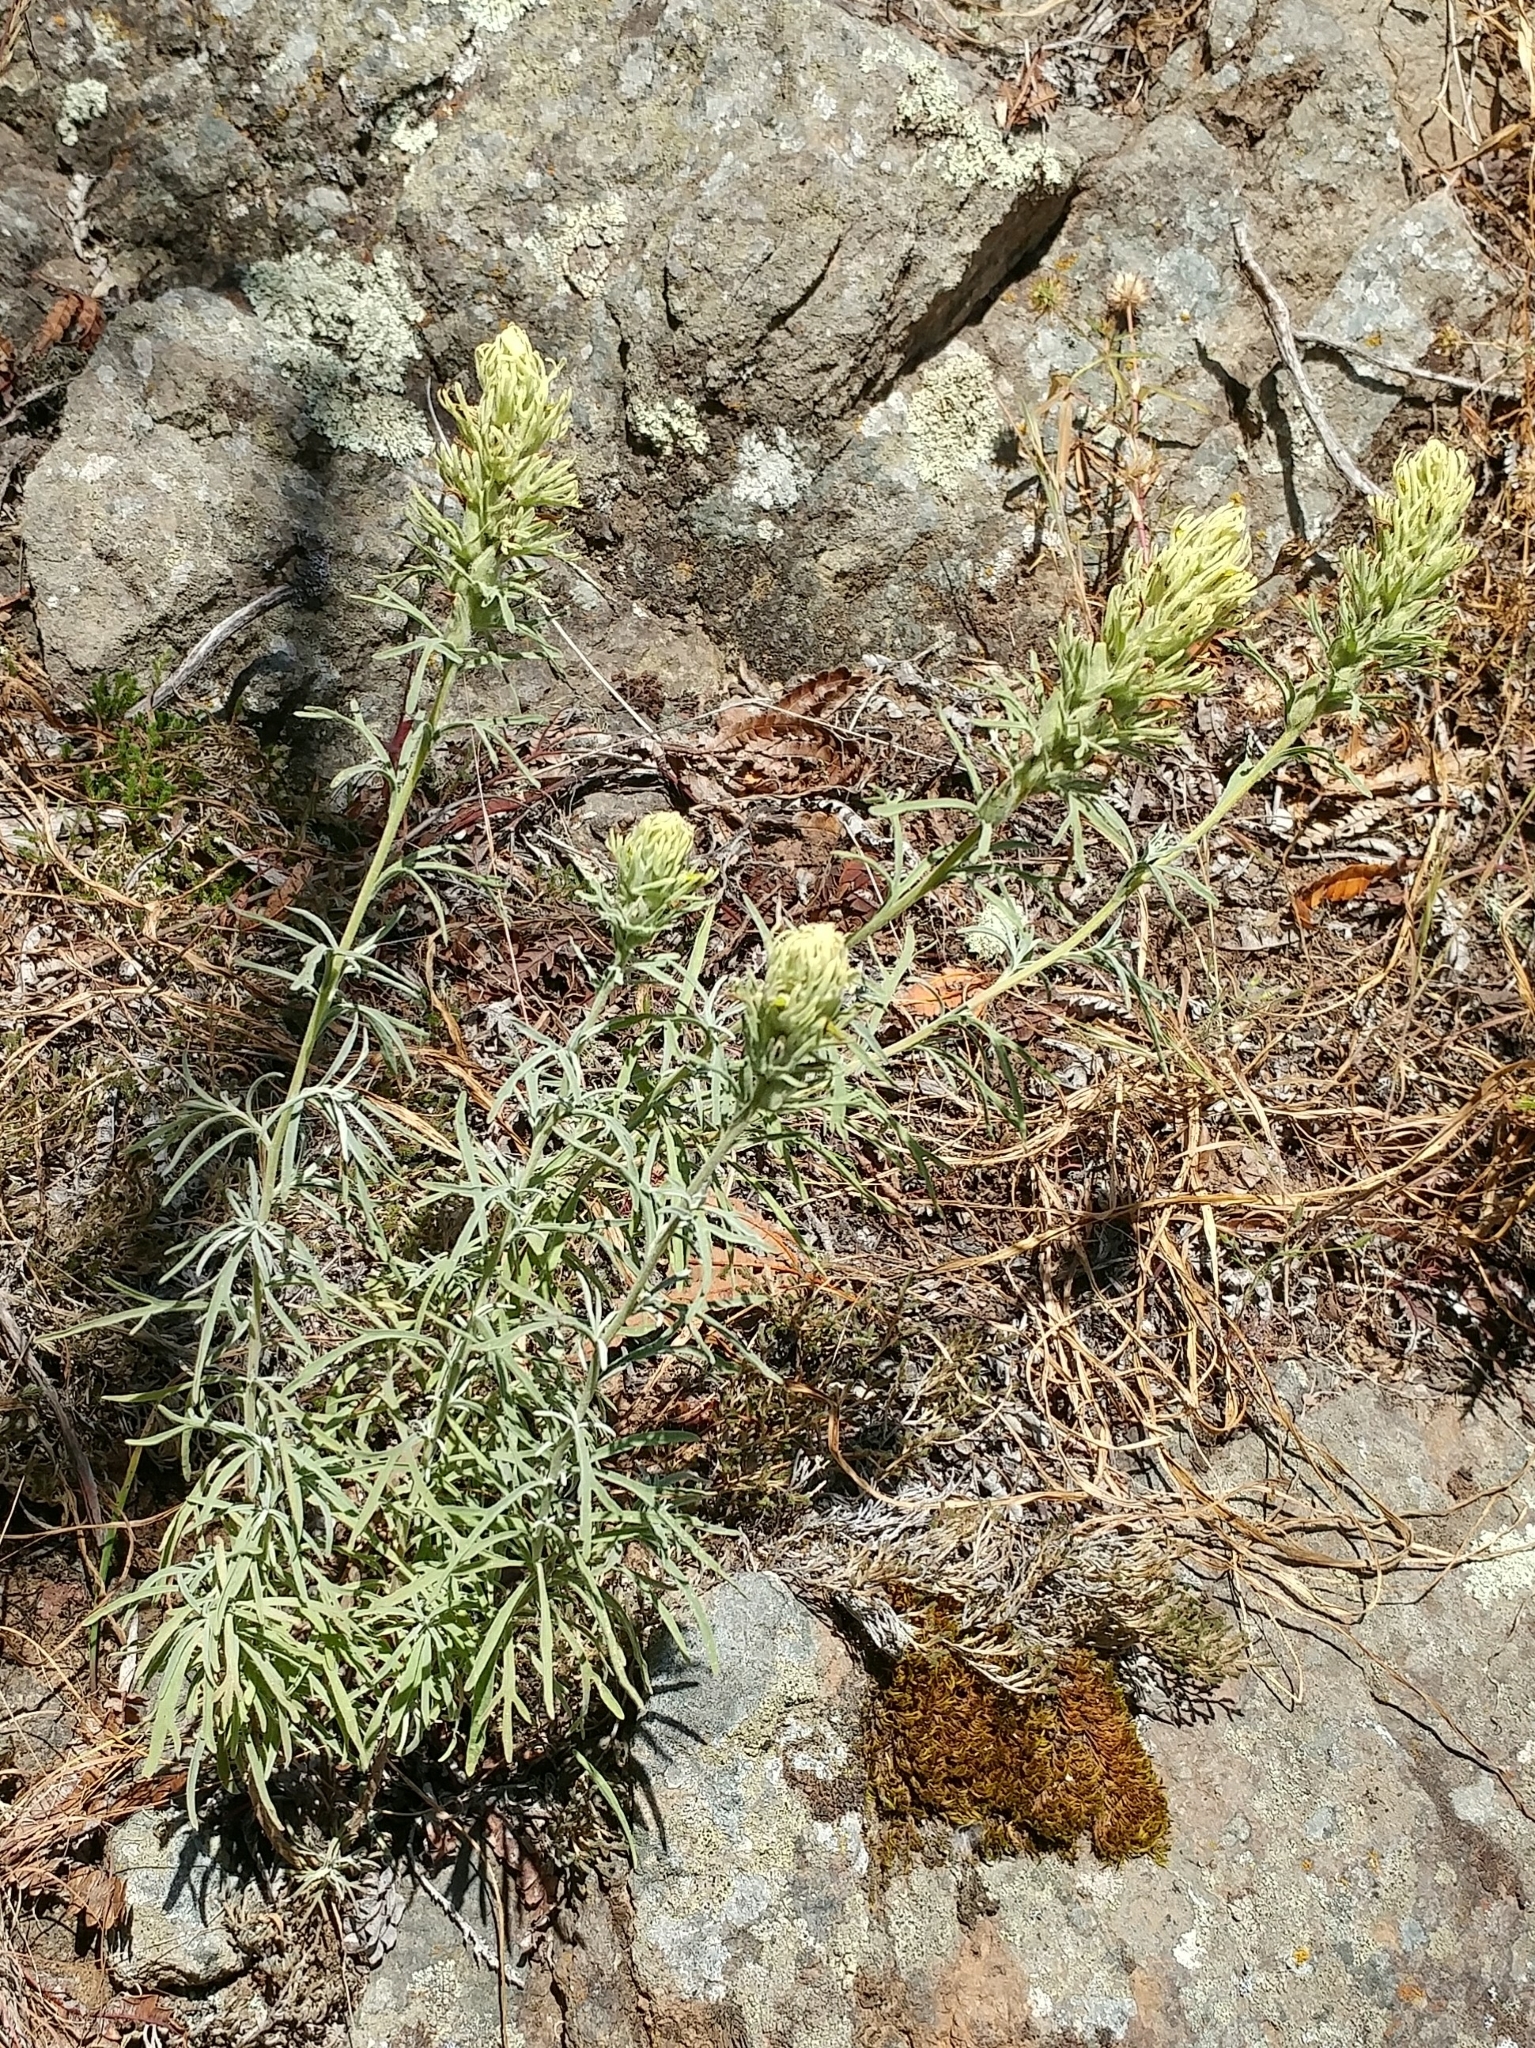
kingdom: Plantae
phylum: Tracheophyta
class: Magnoliopsida
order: Lamiales
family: Orobanchaceae
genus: Castilleja
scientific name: Castilleja grisea
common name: San clemente island indian paintbrush
